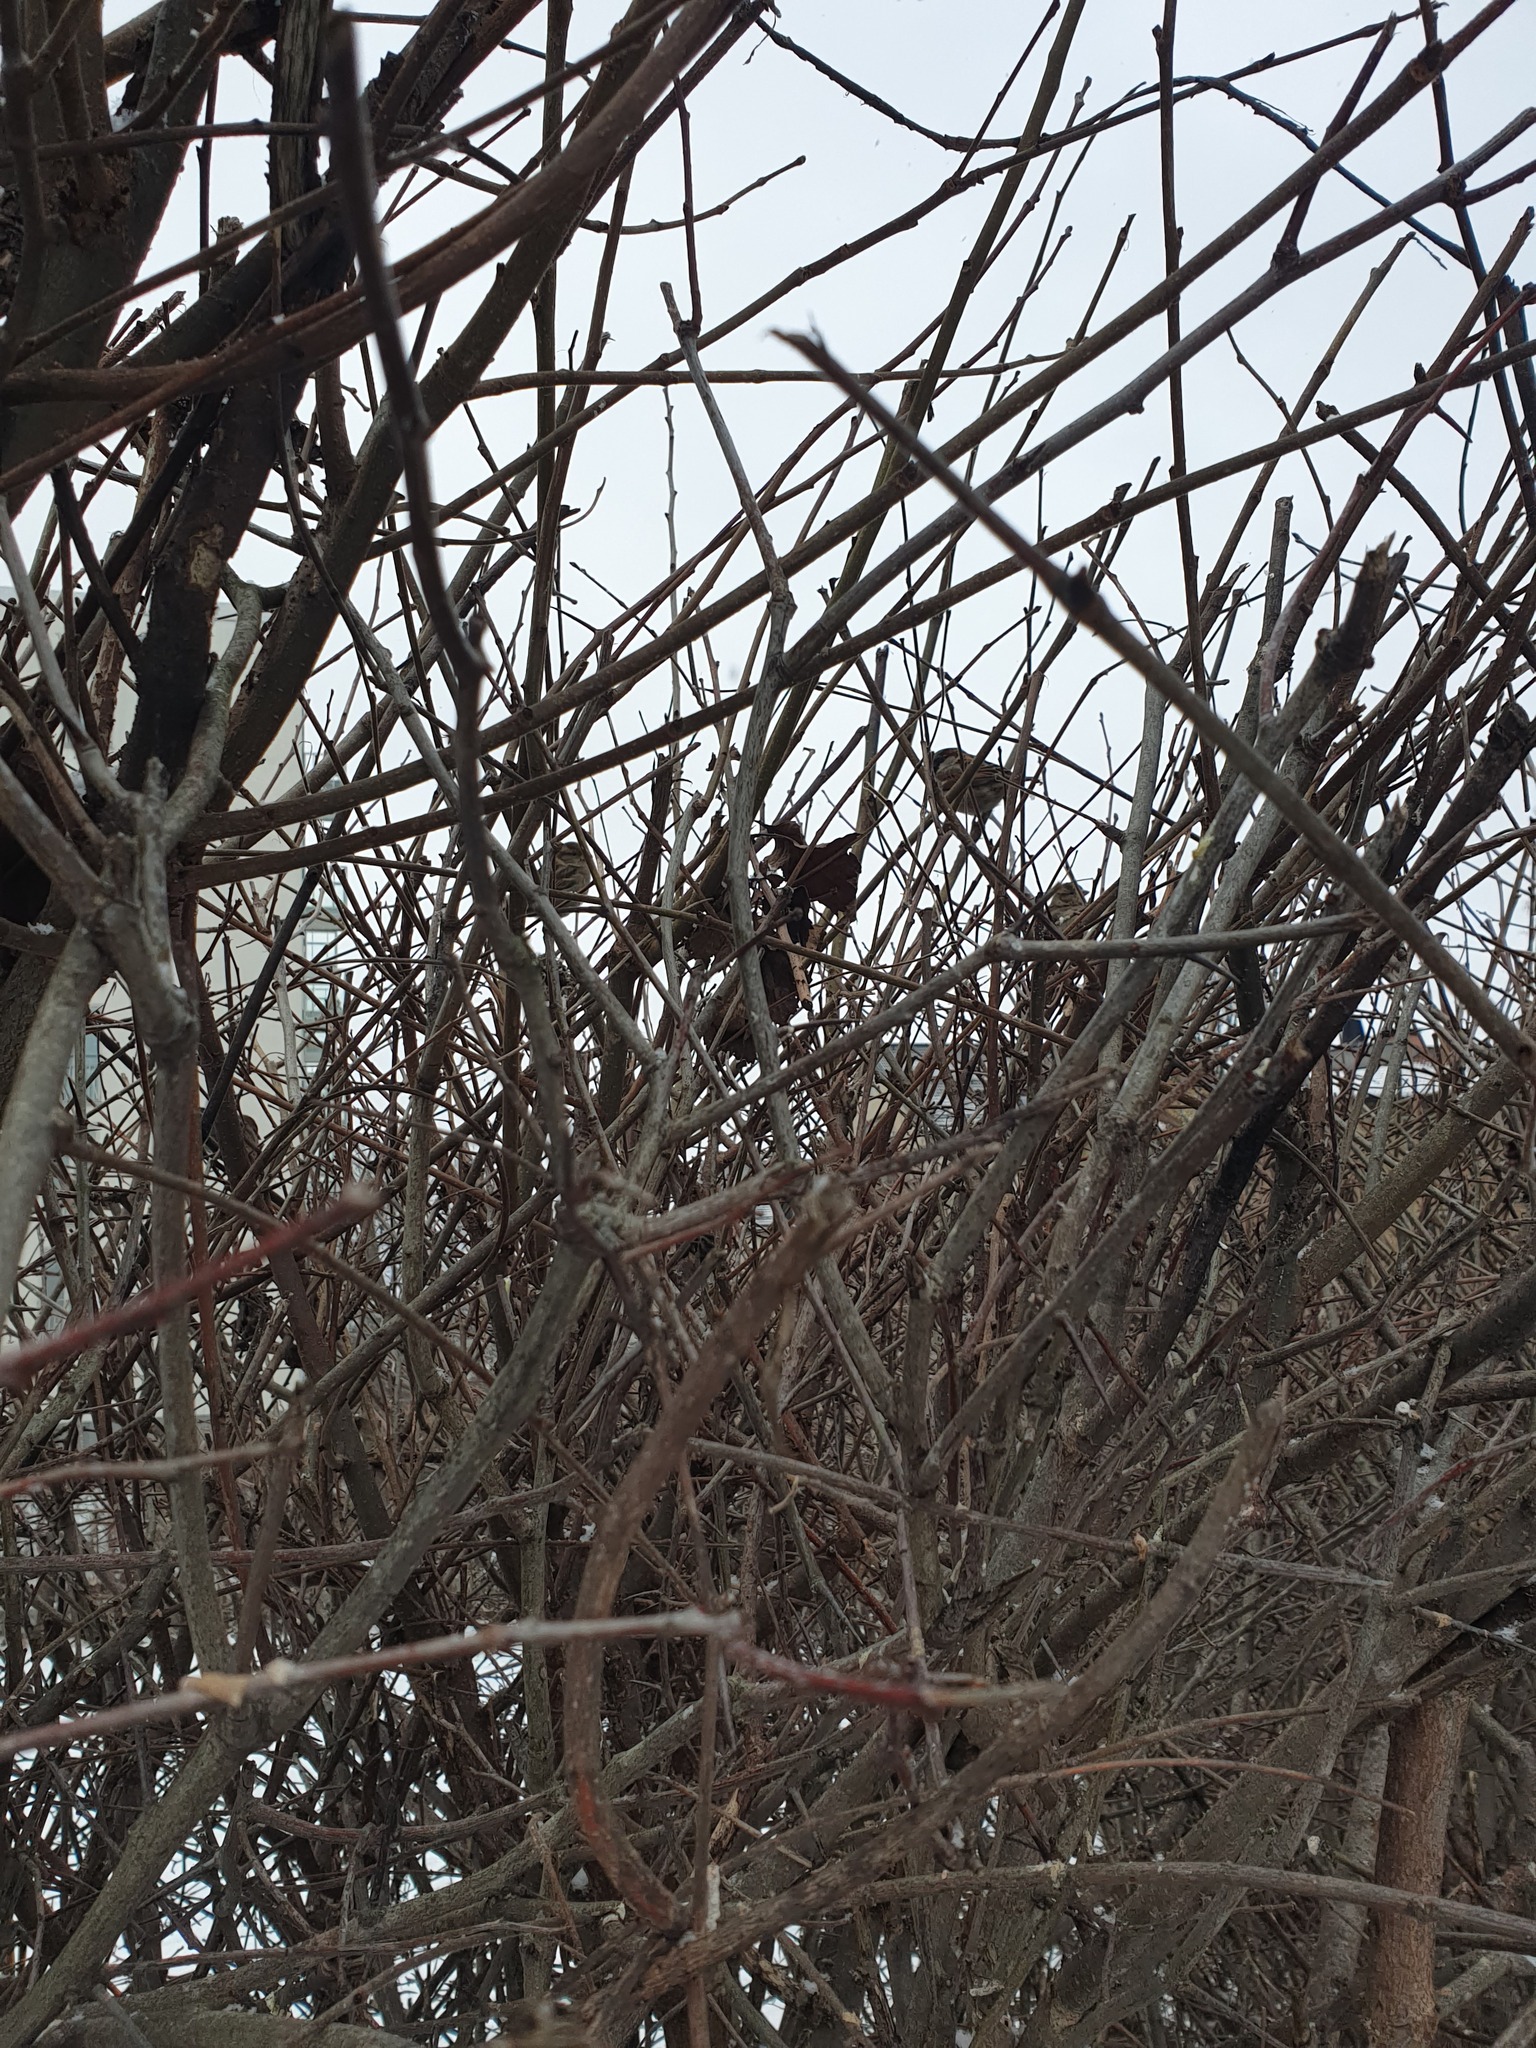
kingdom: Animalia
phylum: Chordata
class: Aves
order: Passeriformes
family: Passeridae
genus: Passer
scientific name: Passer domesticus
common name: House sparrow
